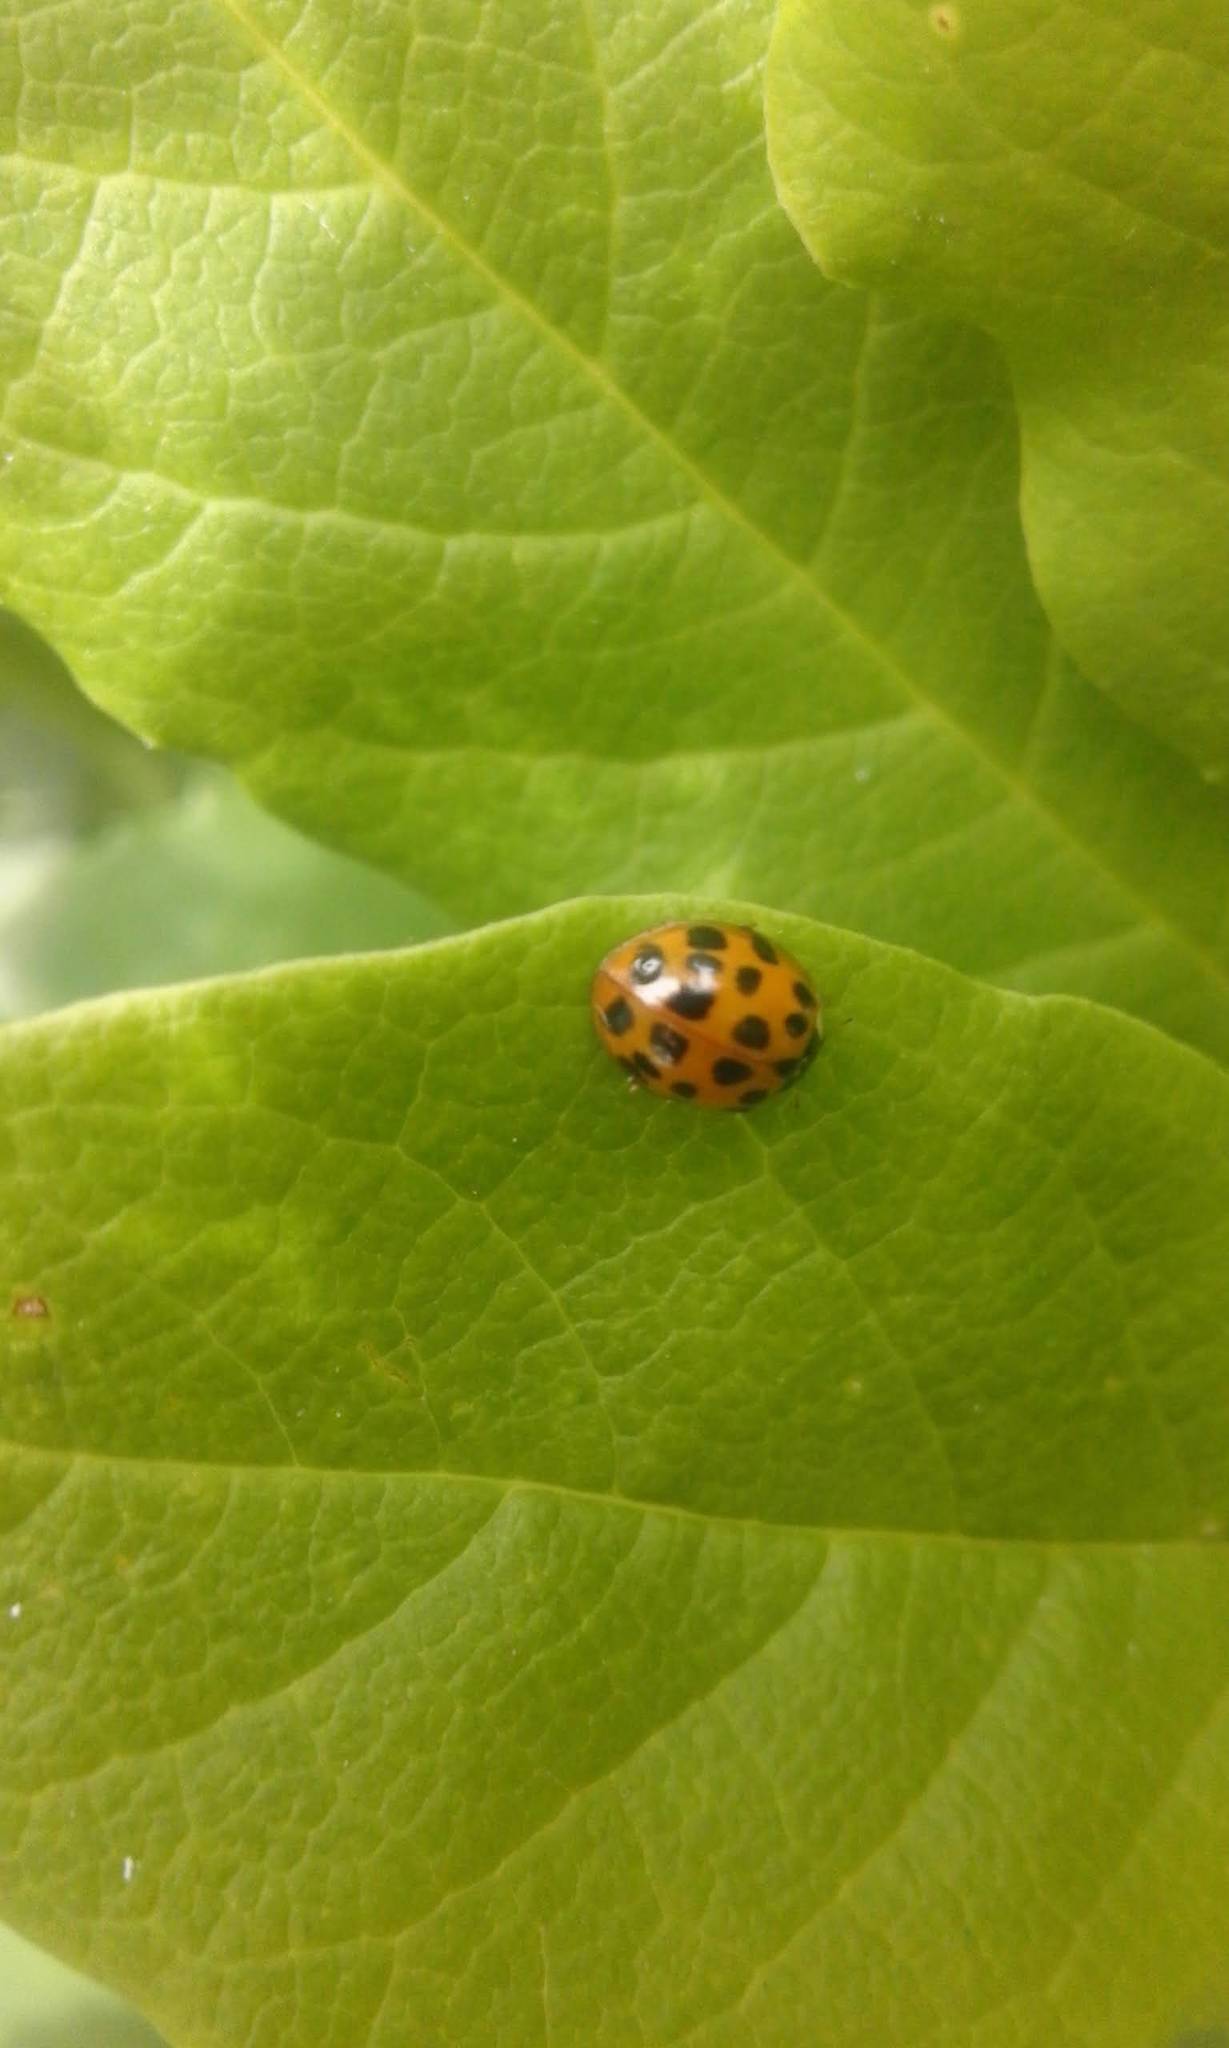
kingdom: Animalia
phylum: Arthropoda
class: Insecta
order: Coleoptera
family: Coccinellidae
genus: Harmonia
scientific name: Harmonia axyridis
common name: Harlequin ladybird
